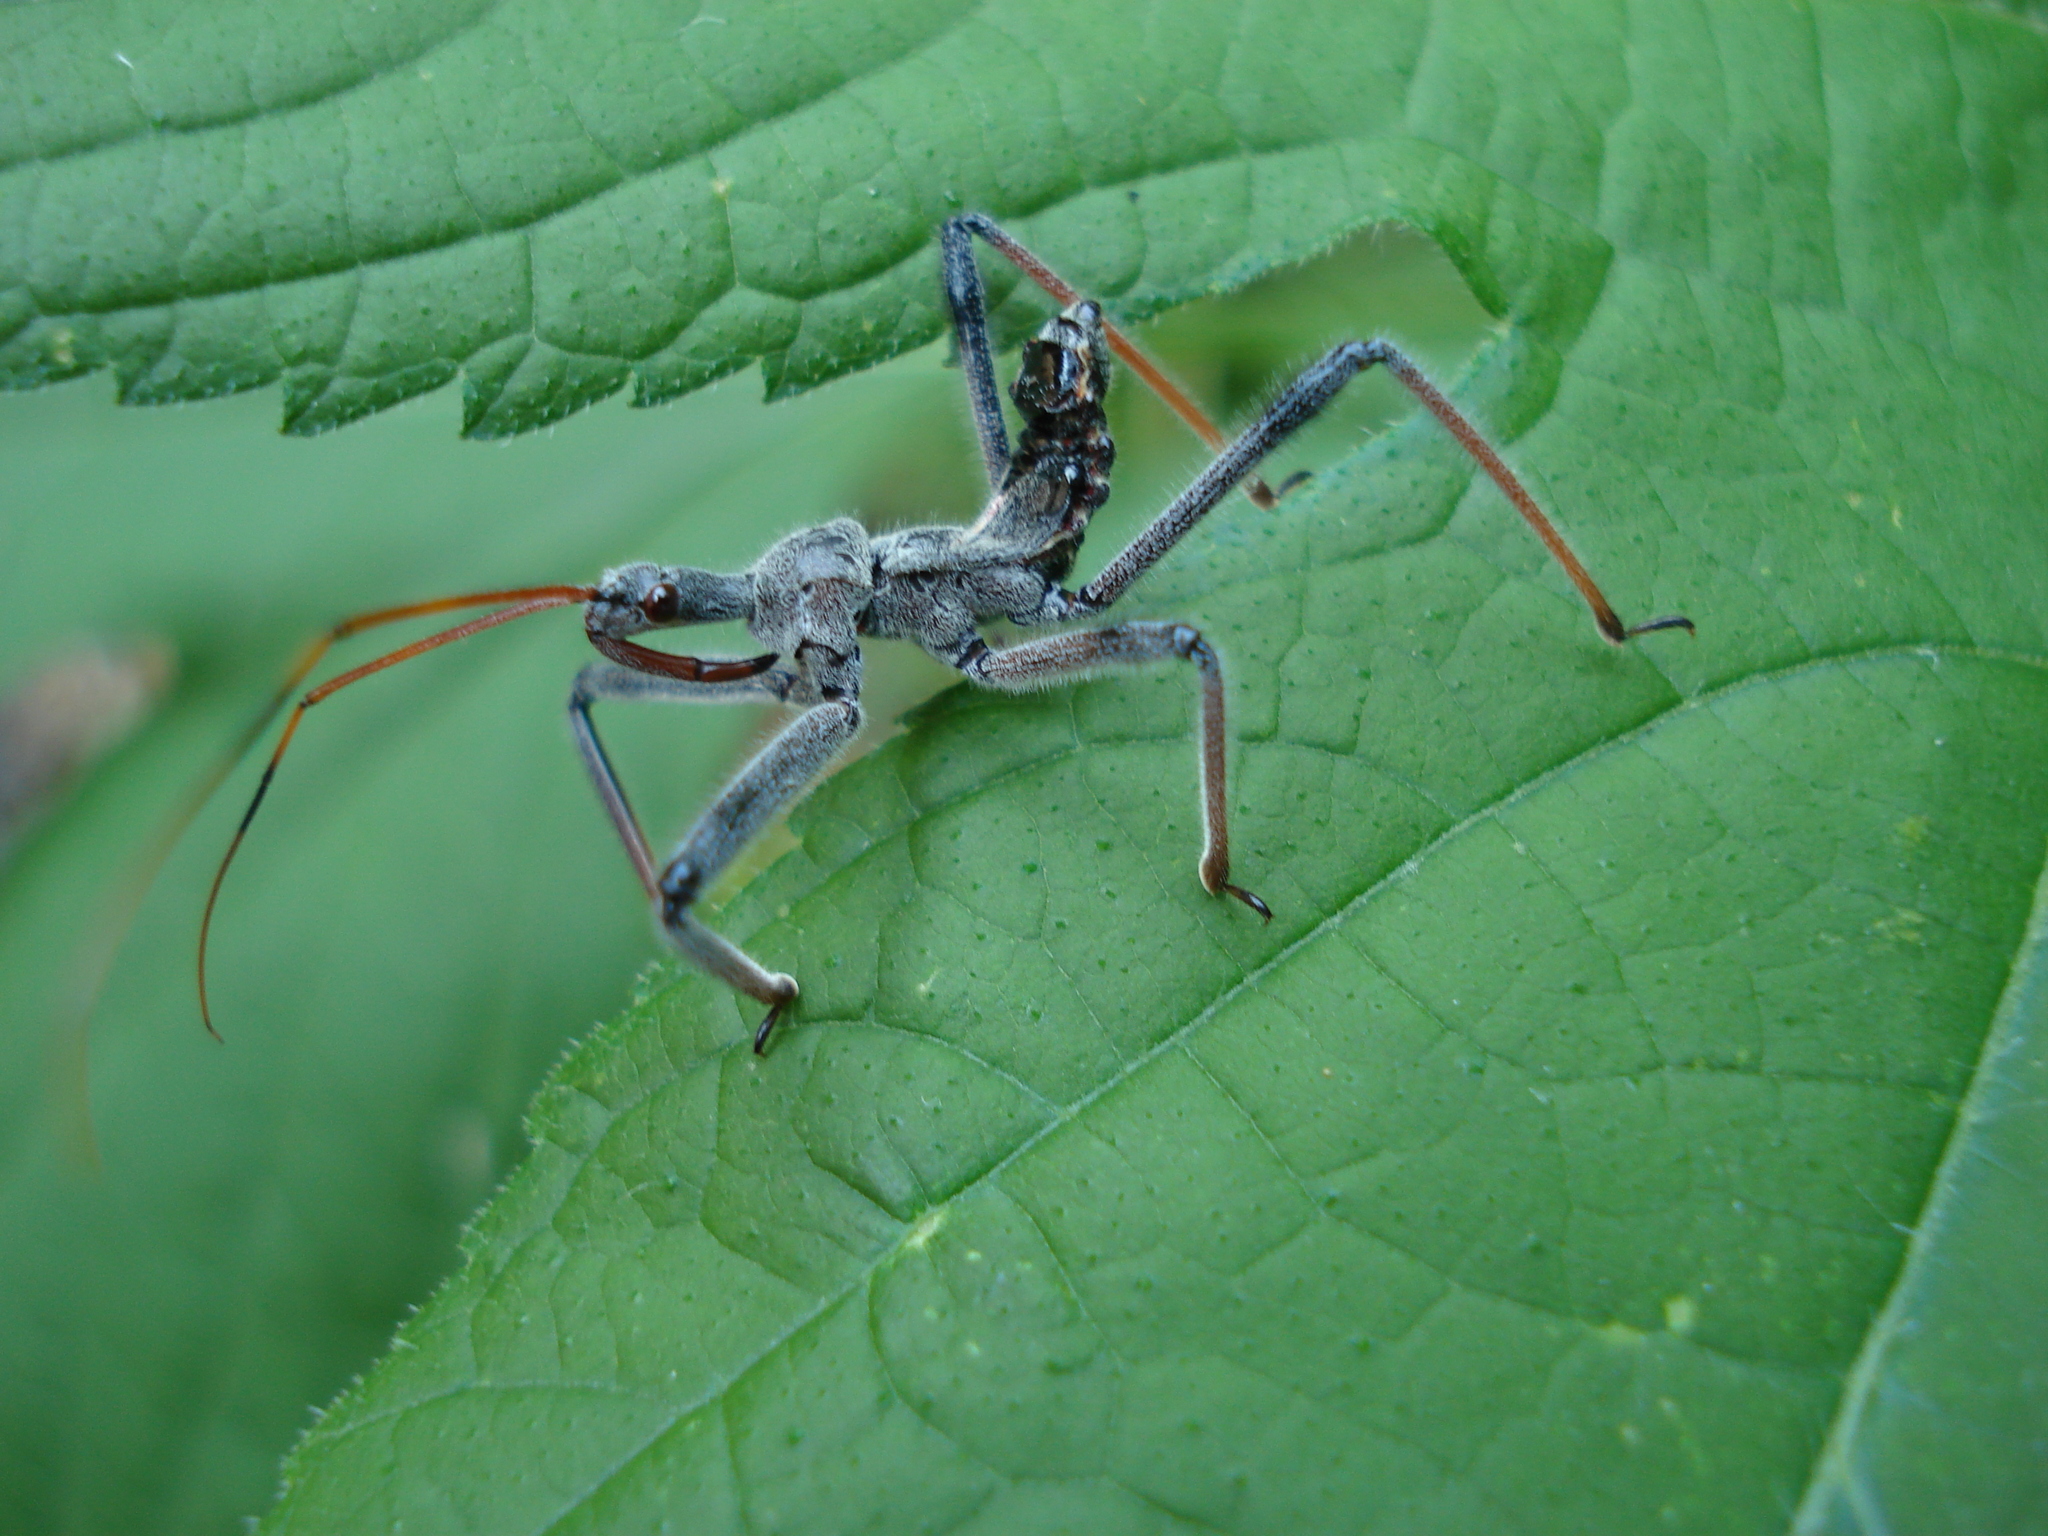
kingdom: Animalia
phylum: Arthropoda
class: Insecta
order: Hemiptera
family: Reduviidae
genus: Arilus
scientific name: Arilus cristatus
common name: North american wheel bug
